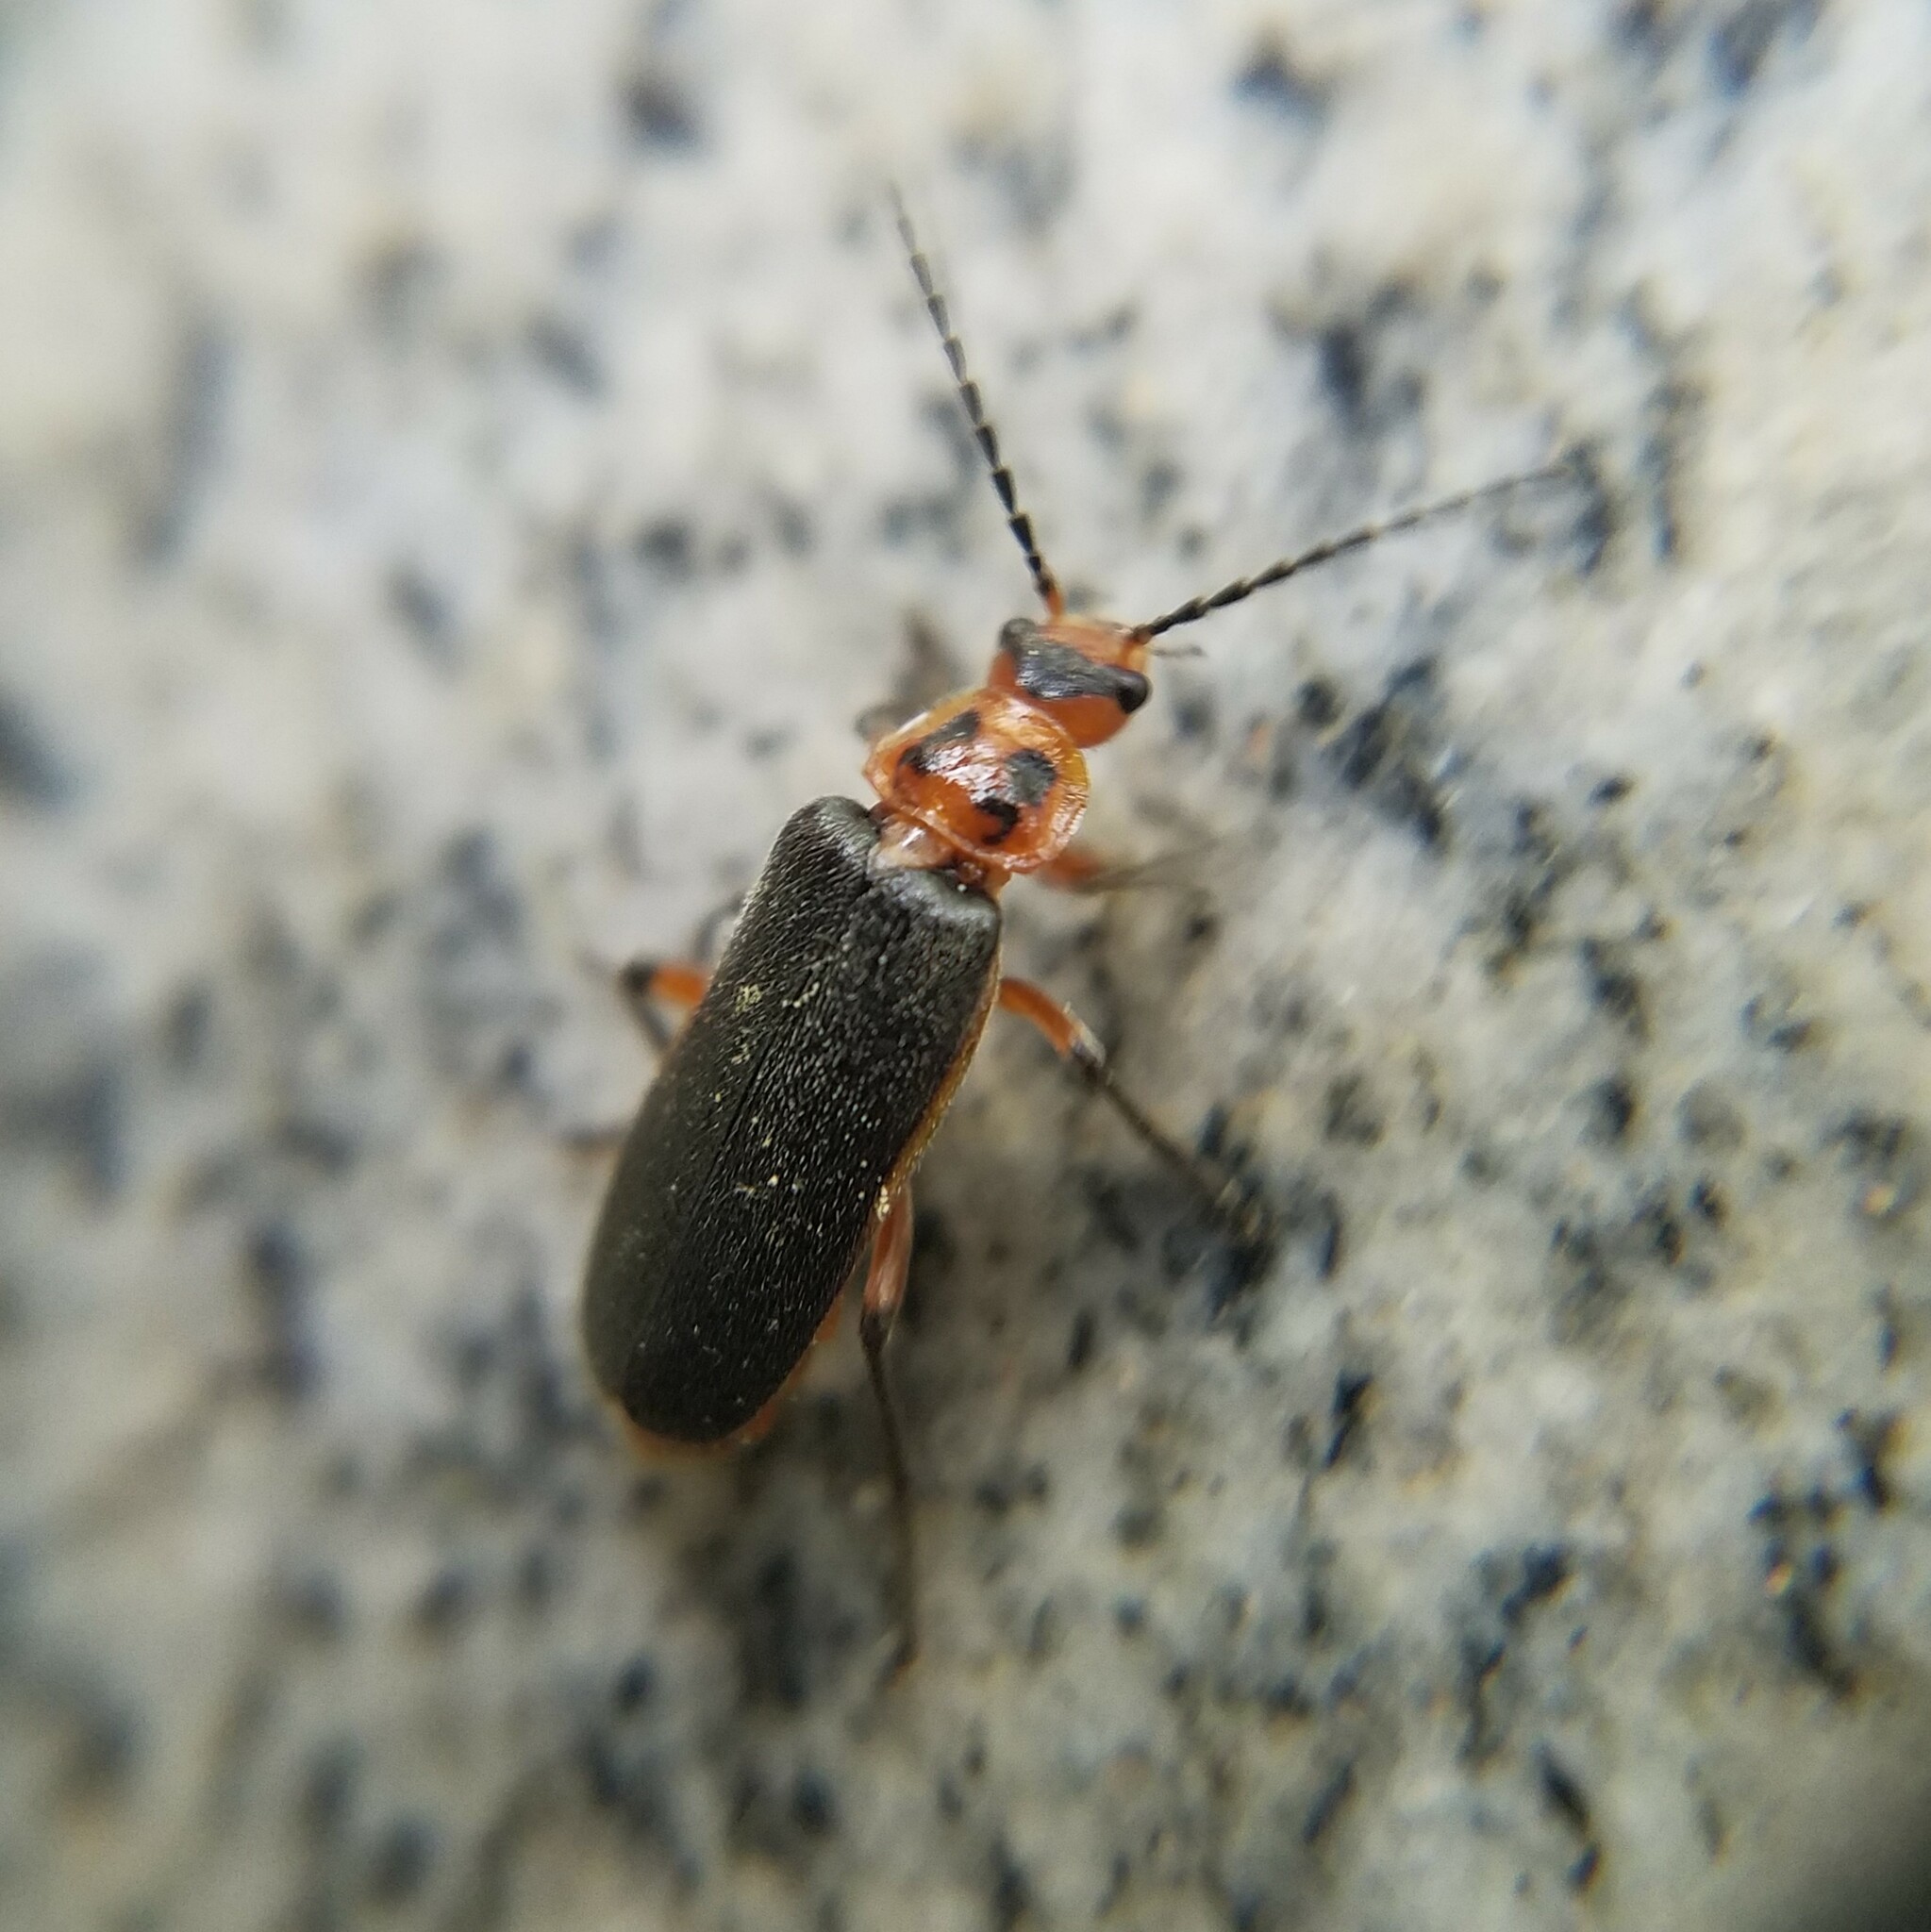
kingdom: Animalia
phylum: Arthropoda
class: Insecta
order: Coleoptera
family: Cantharidae
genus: Atalantycha
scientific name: Atalantycha bilineata
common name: Two-lined leatherwing
